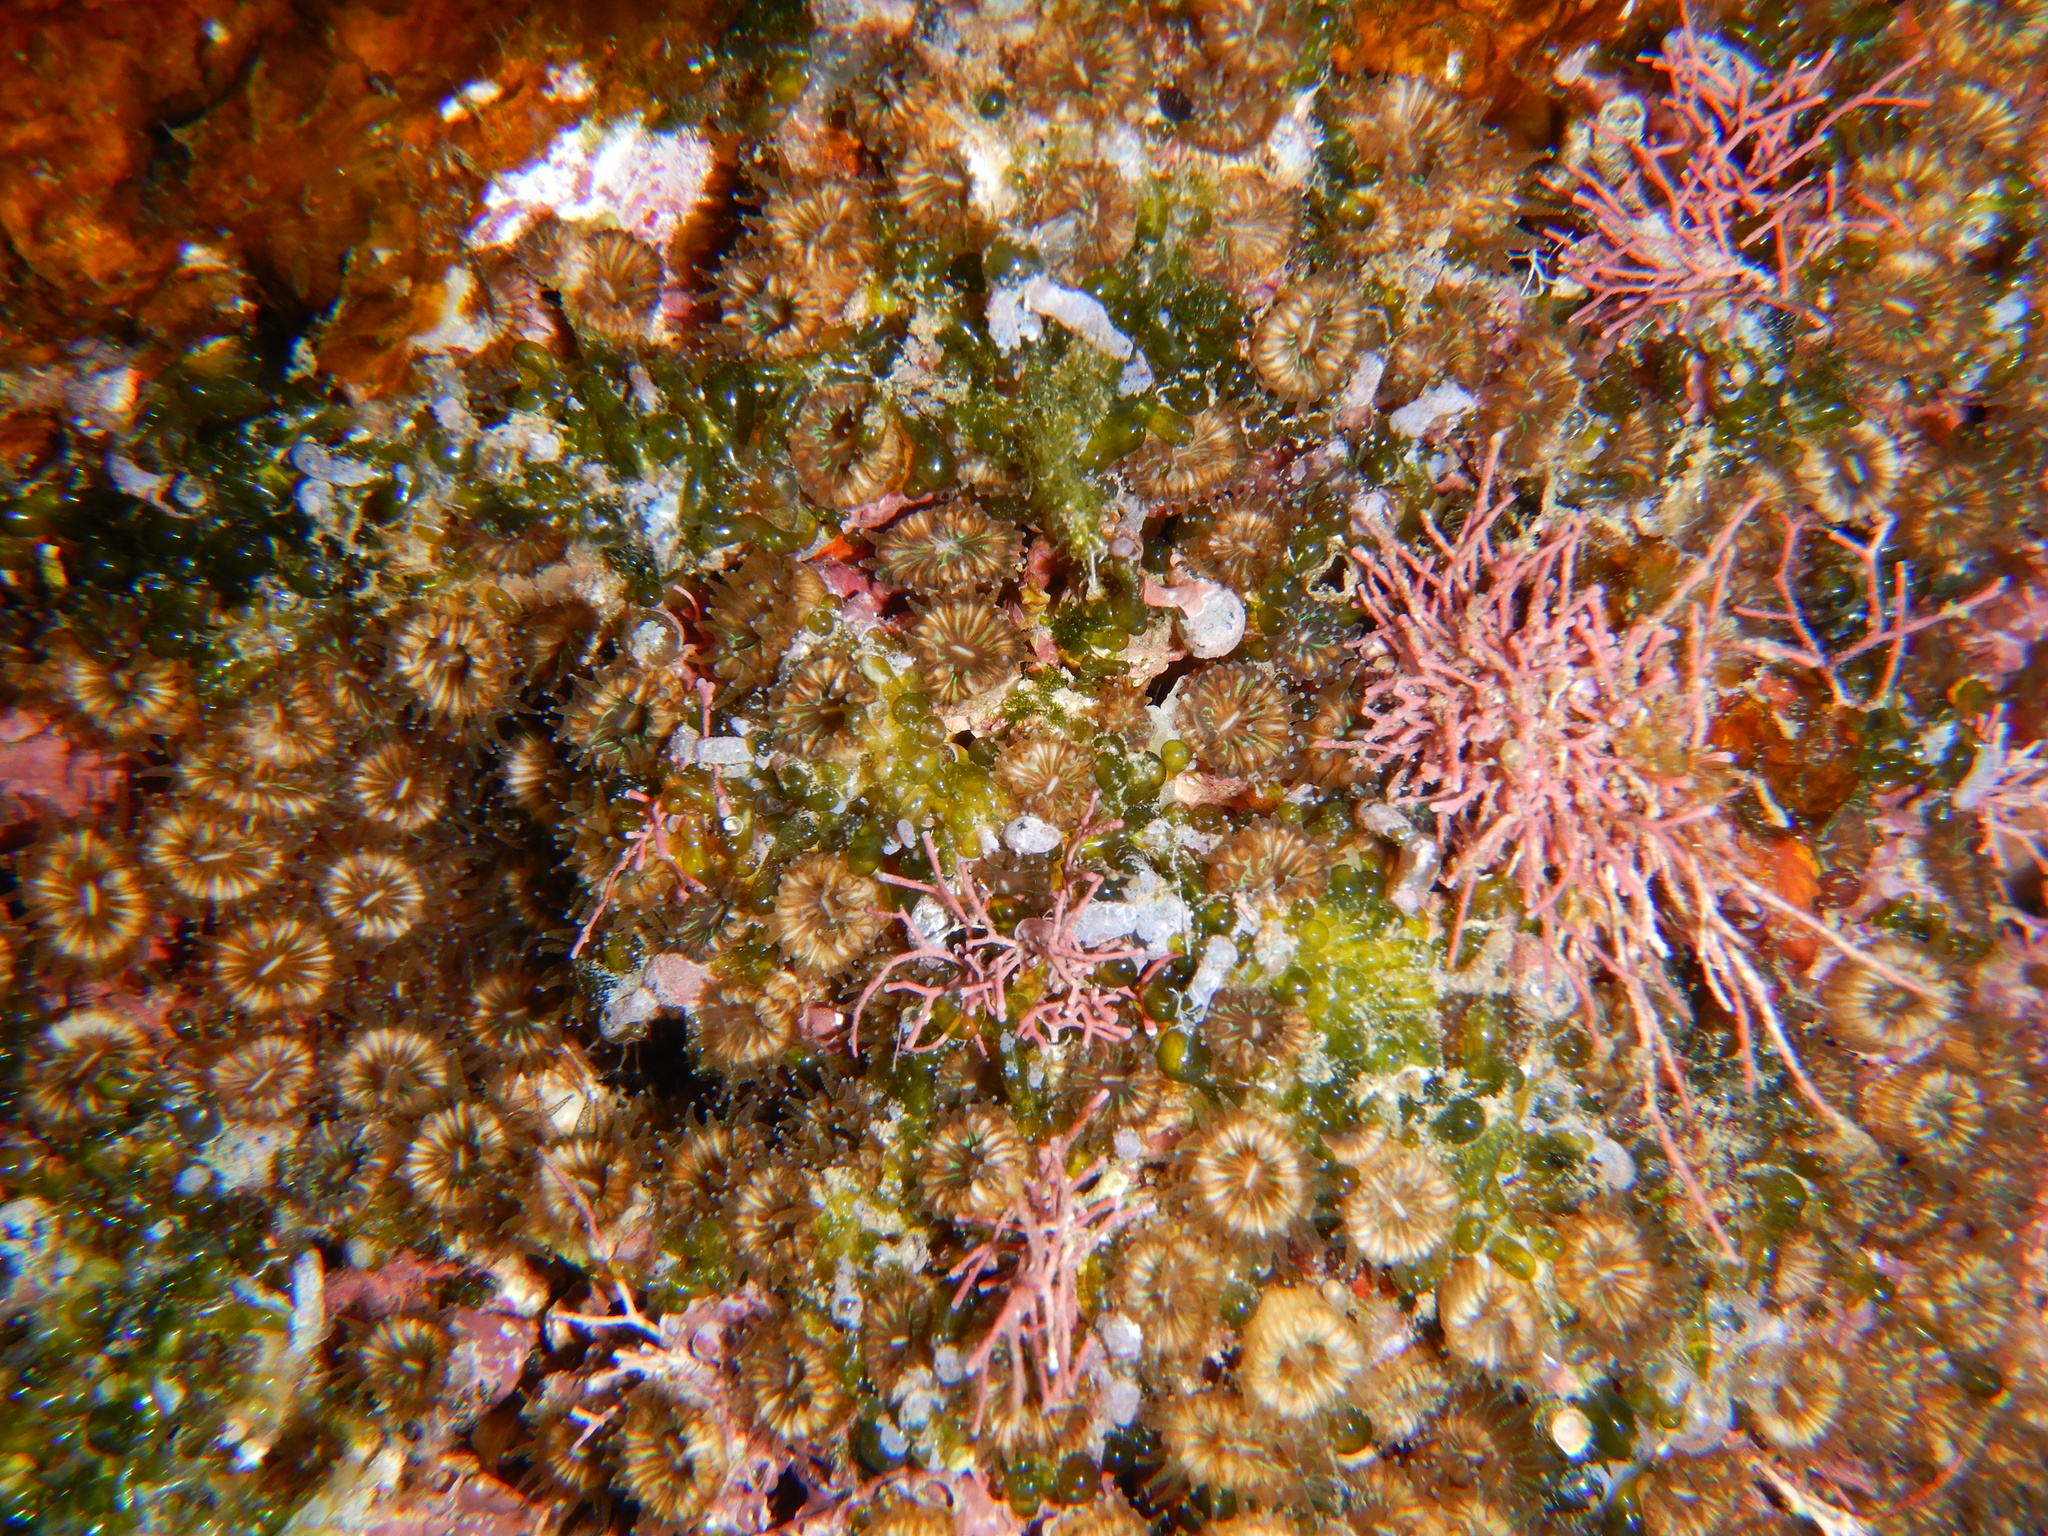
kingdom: Animalia
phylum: Cnidaria
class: Anthozoa
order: Scleractinia
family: Cladocoridae
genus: Cladocora
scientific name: Cladocora caespitosa
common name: Cladocora
